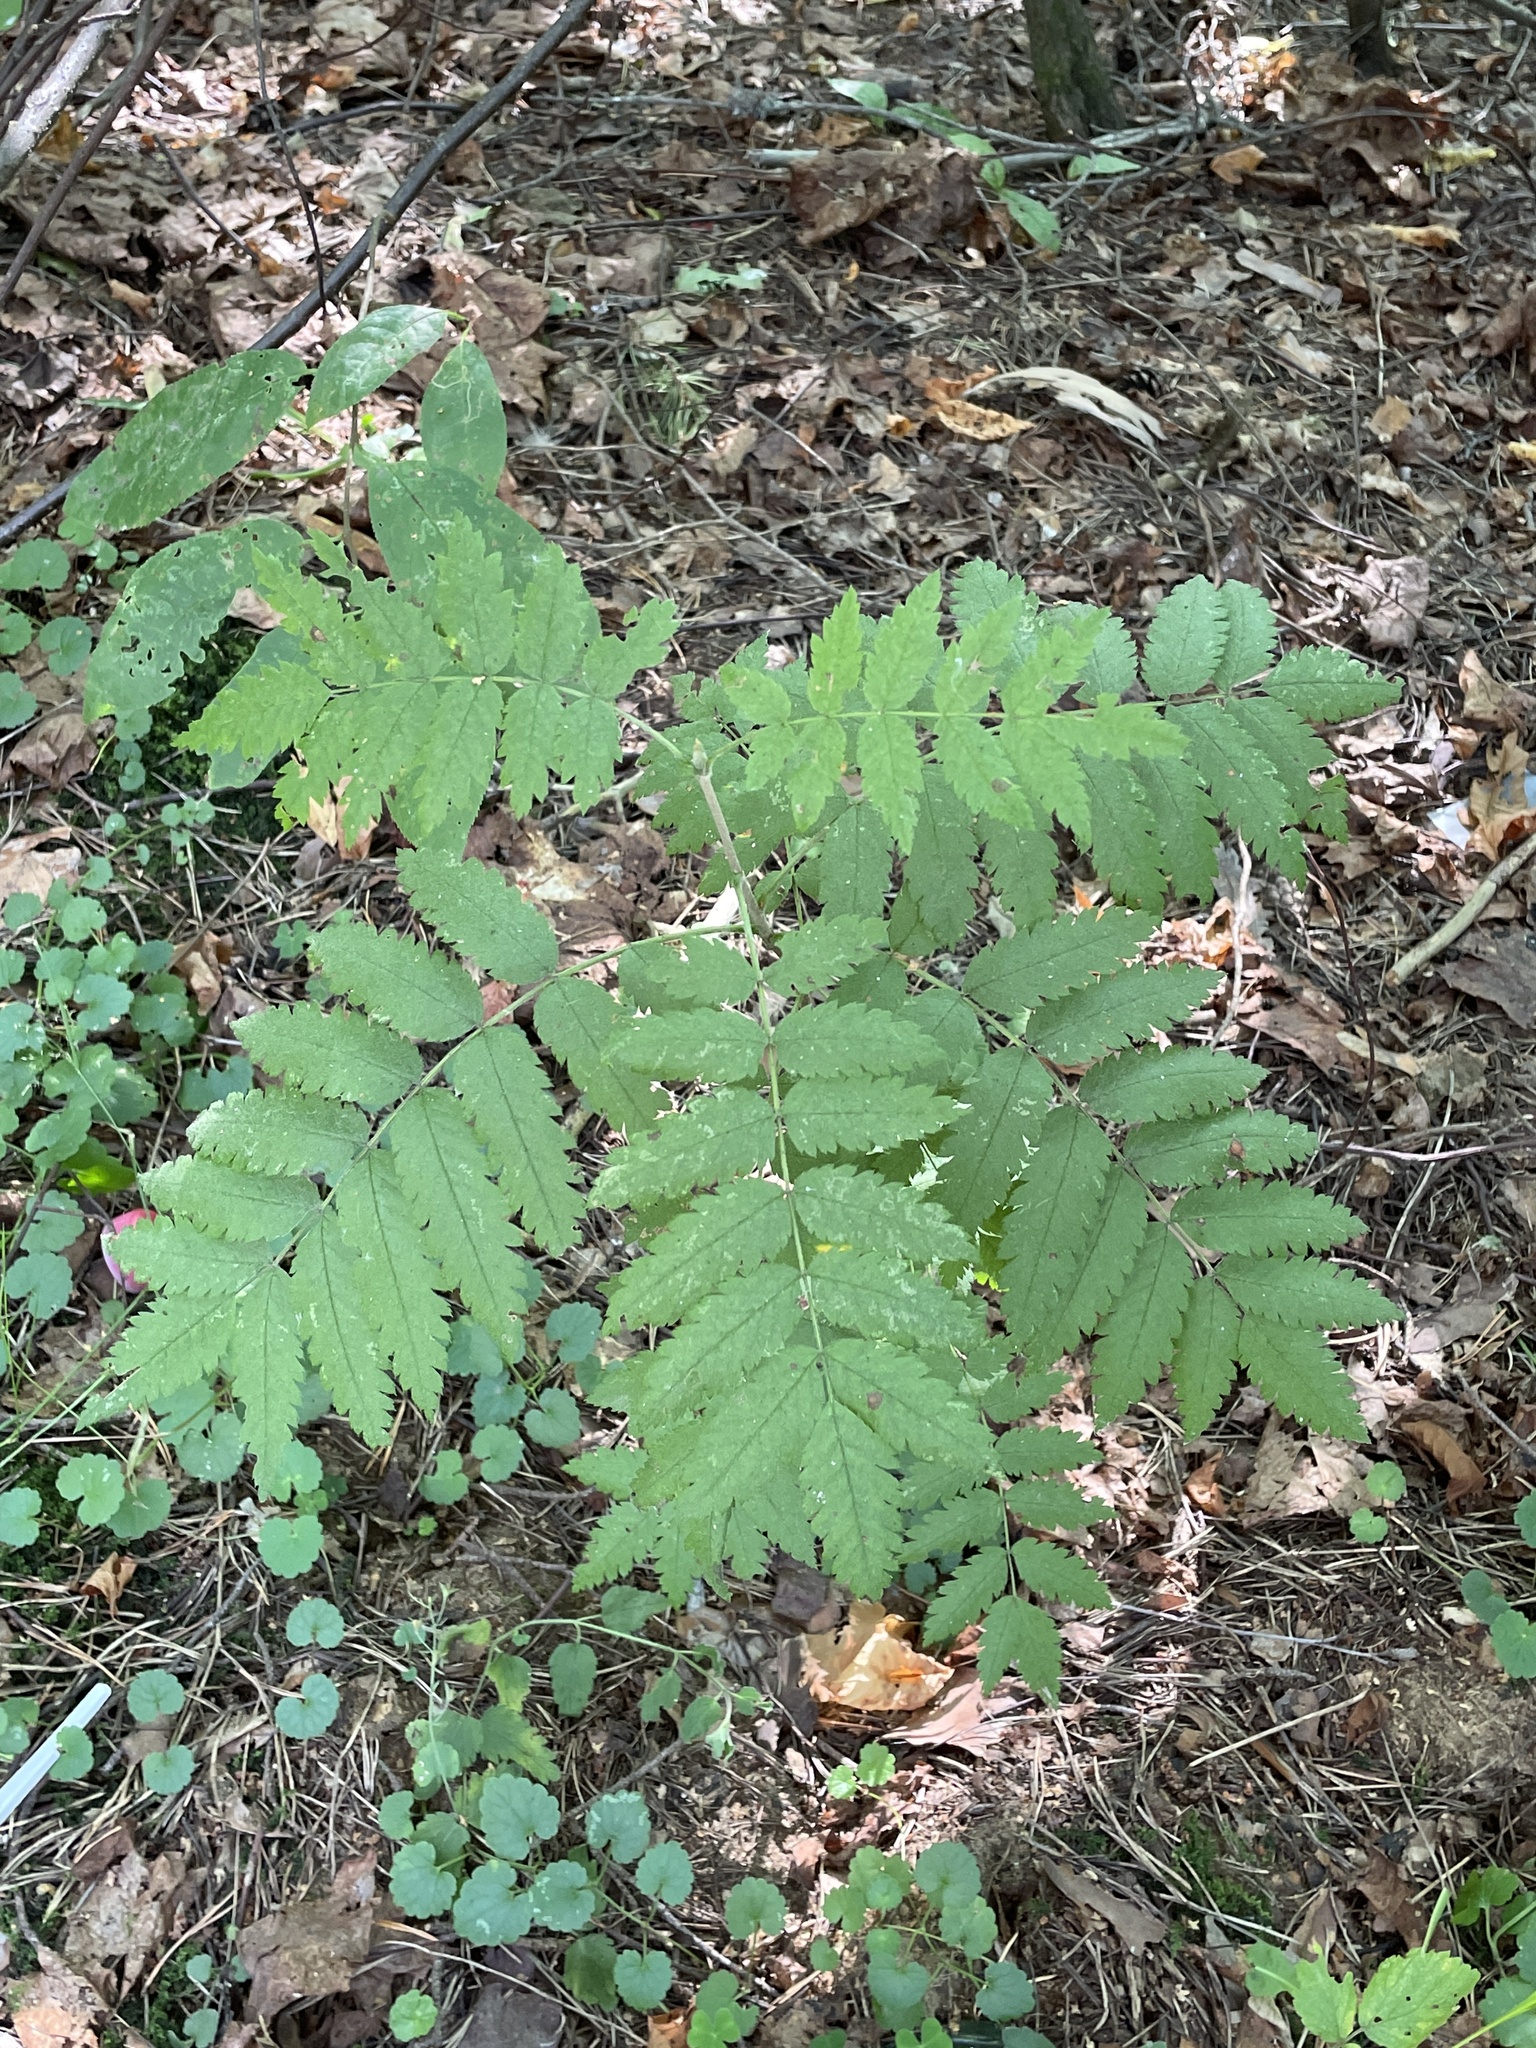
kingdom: Plantae
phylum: Tracheophyta
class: Magnoliopsida
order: Rosales
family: Rosaceae
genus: Sorbus
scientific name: Sorbus aucuparia
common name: Rowan
